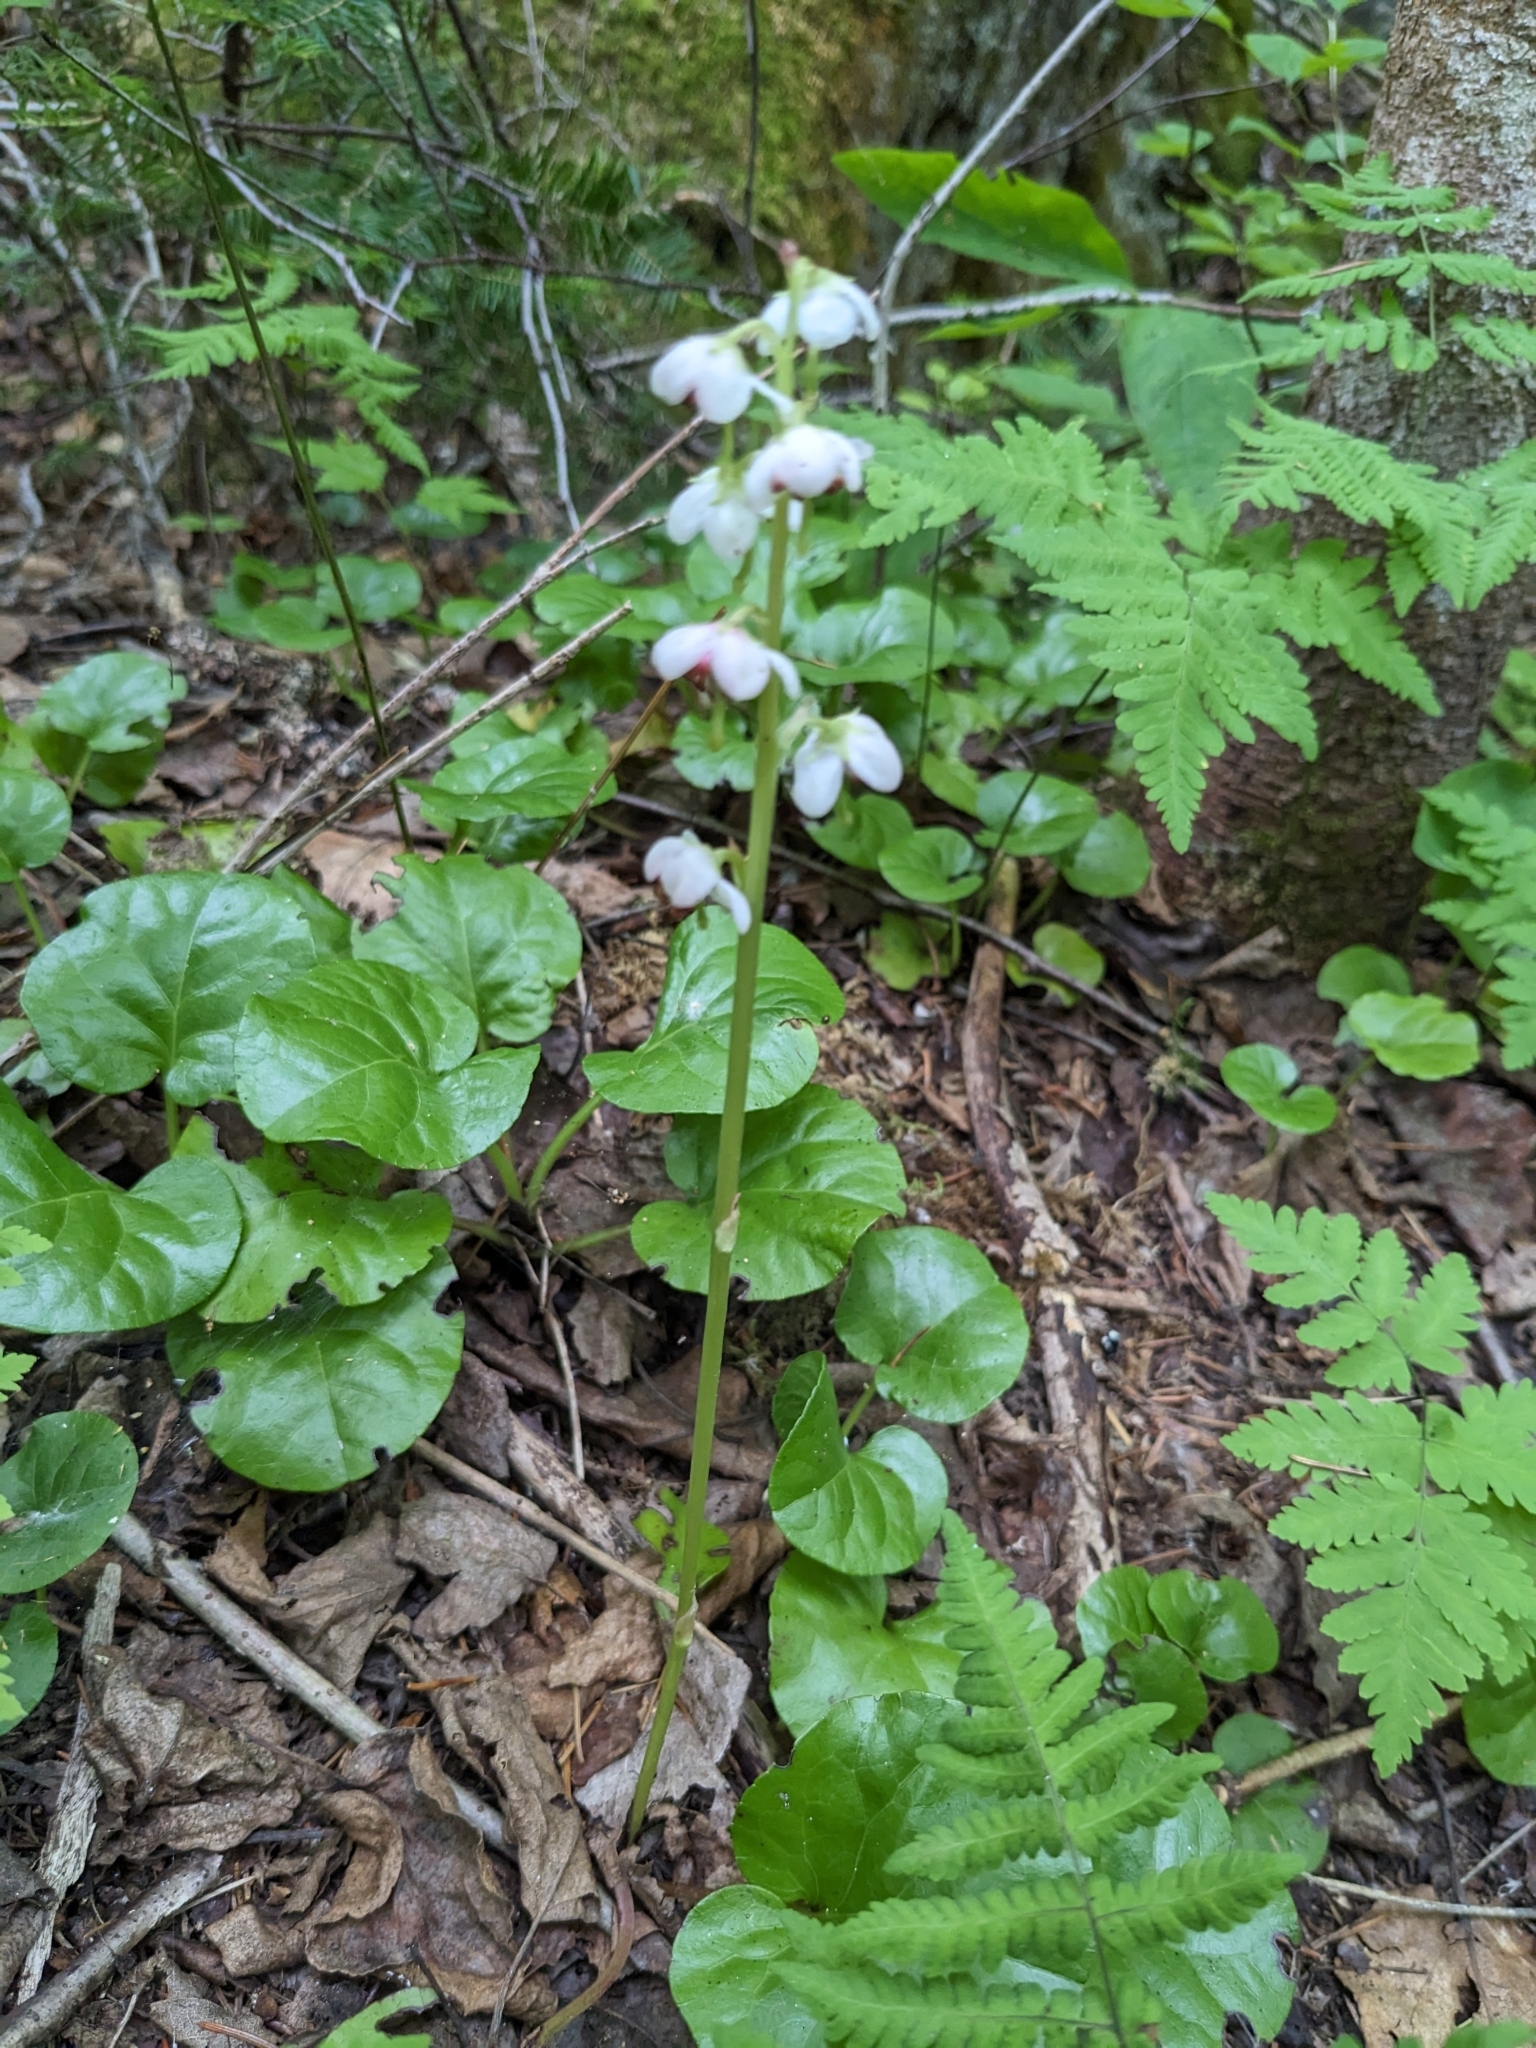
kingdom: Plantae
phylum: Tracheophyta
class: Magnoliopsida
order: Ericales
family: Ericaceae
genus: Pyrola
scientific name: Pyrola asarifolia
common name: Bog wintergreen
